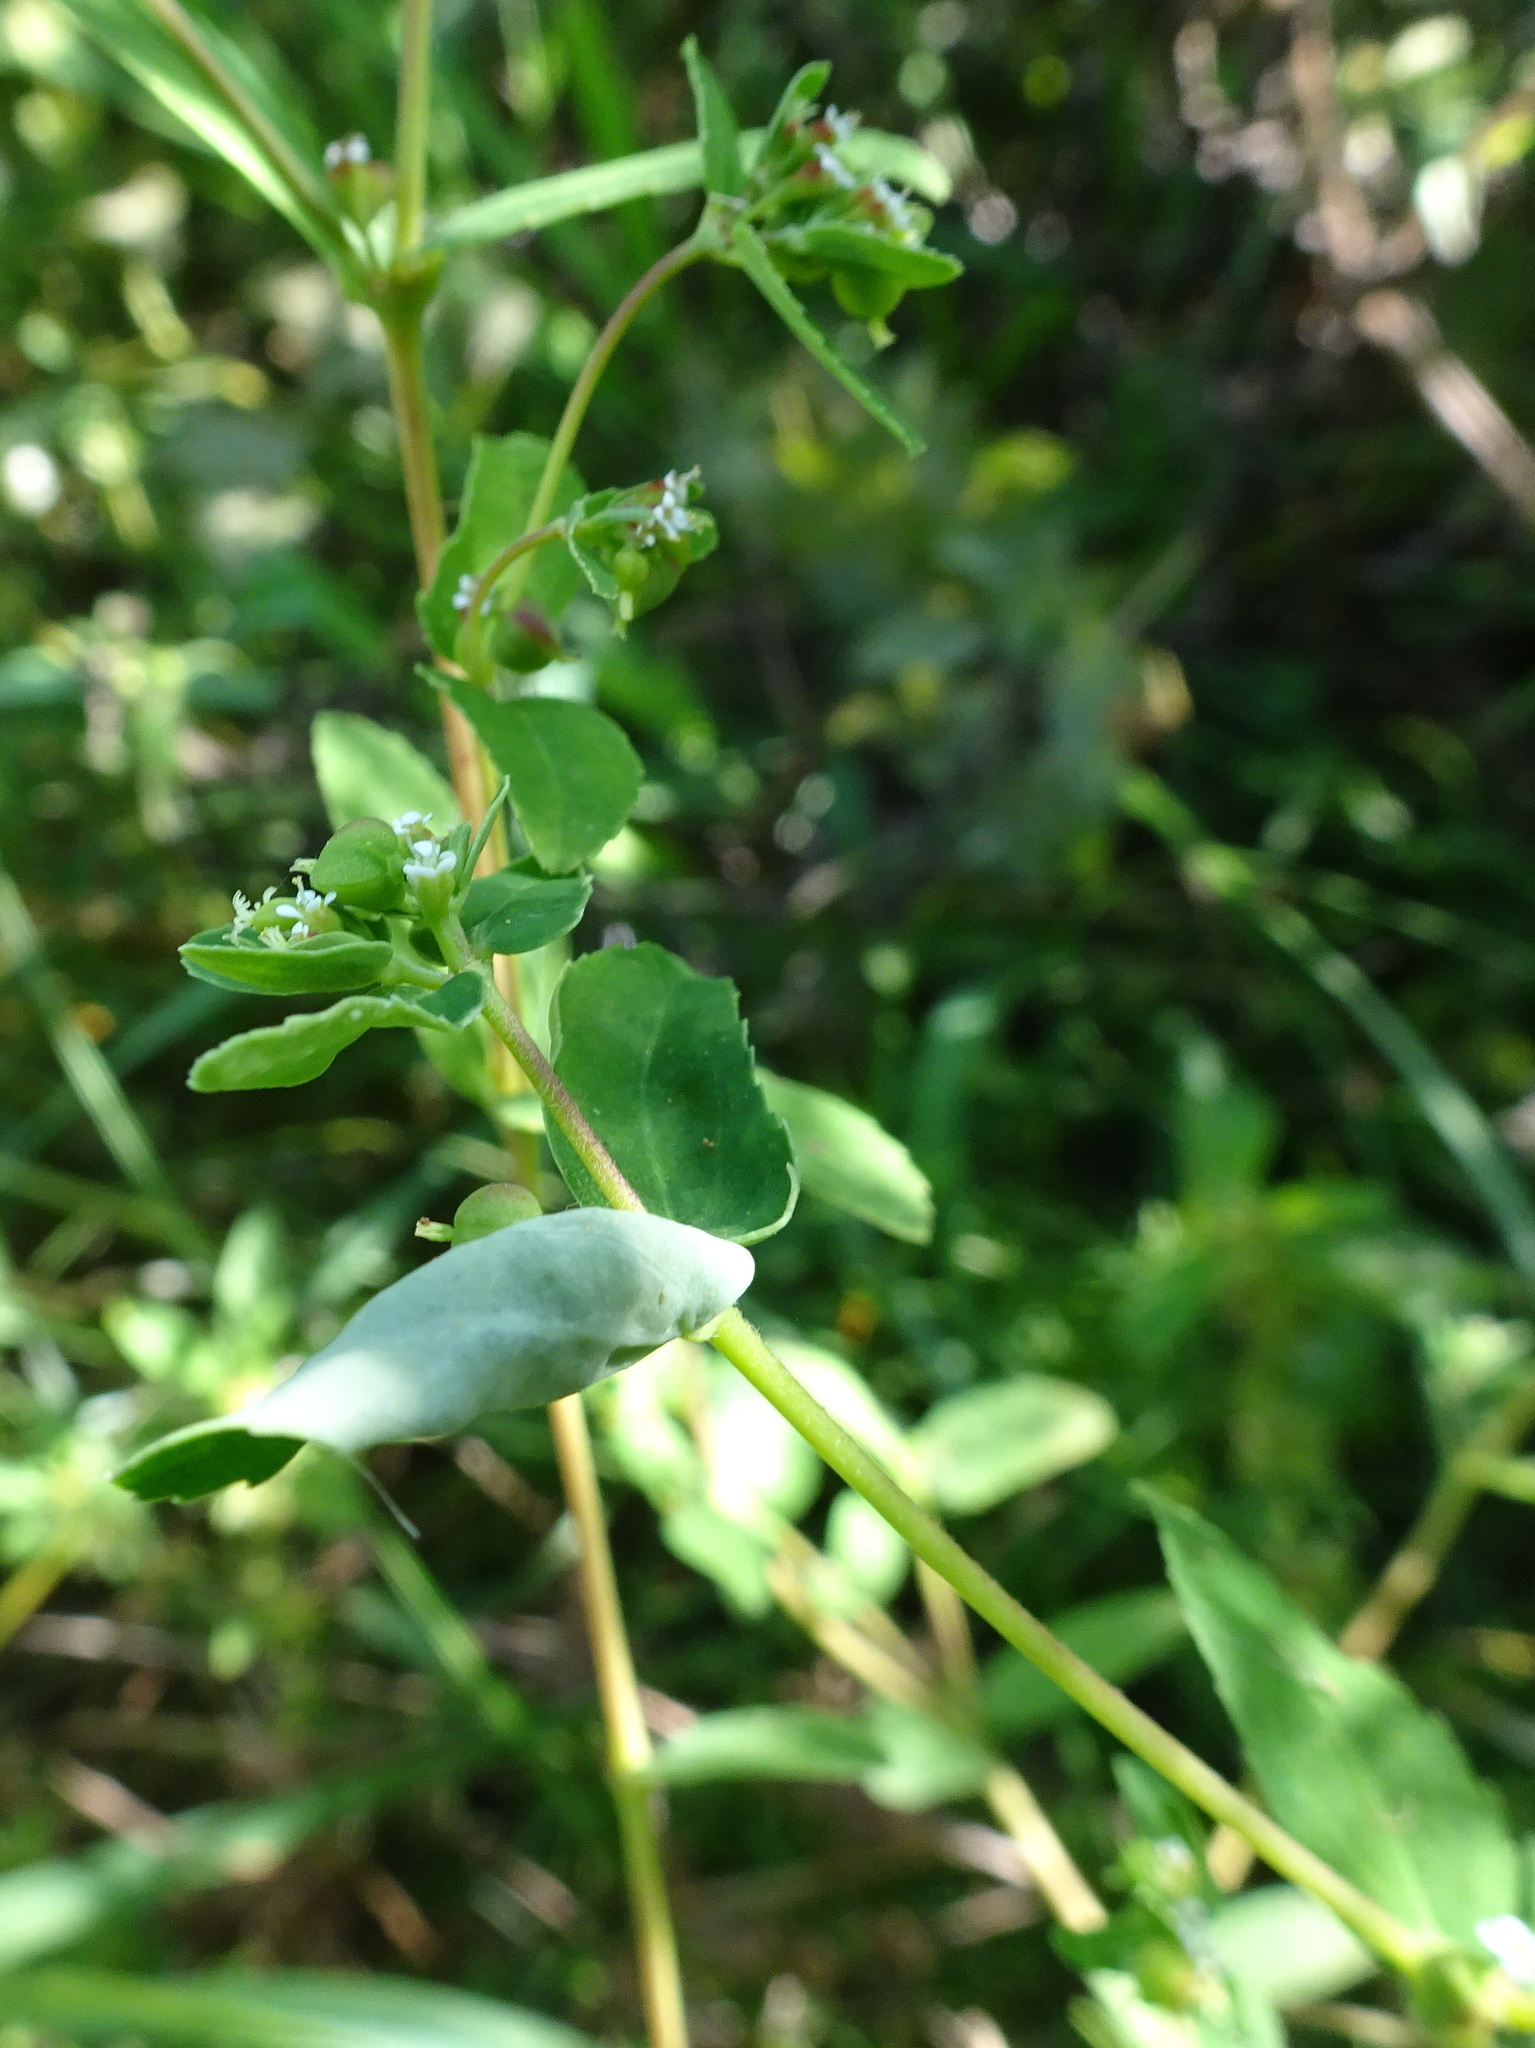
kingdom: Plantae
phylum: Tracheophyta
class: Magnoliopsida
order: Malpighiales
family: Euphorbiaceae
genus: Euphorbia
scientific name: Euphorbia nutans
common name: Eyebane
